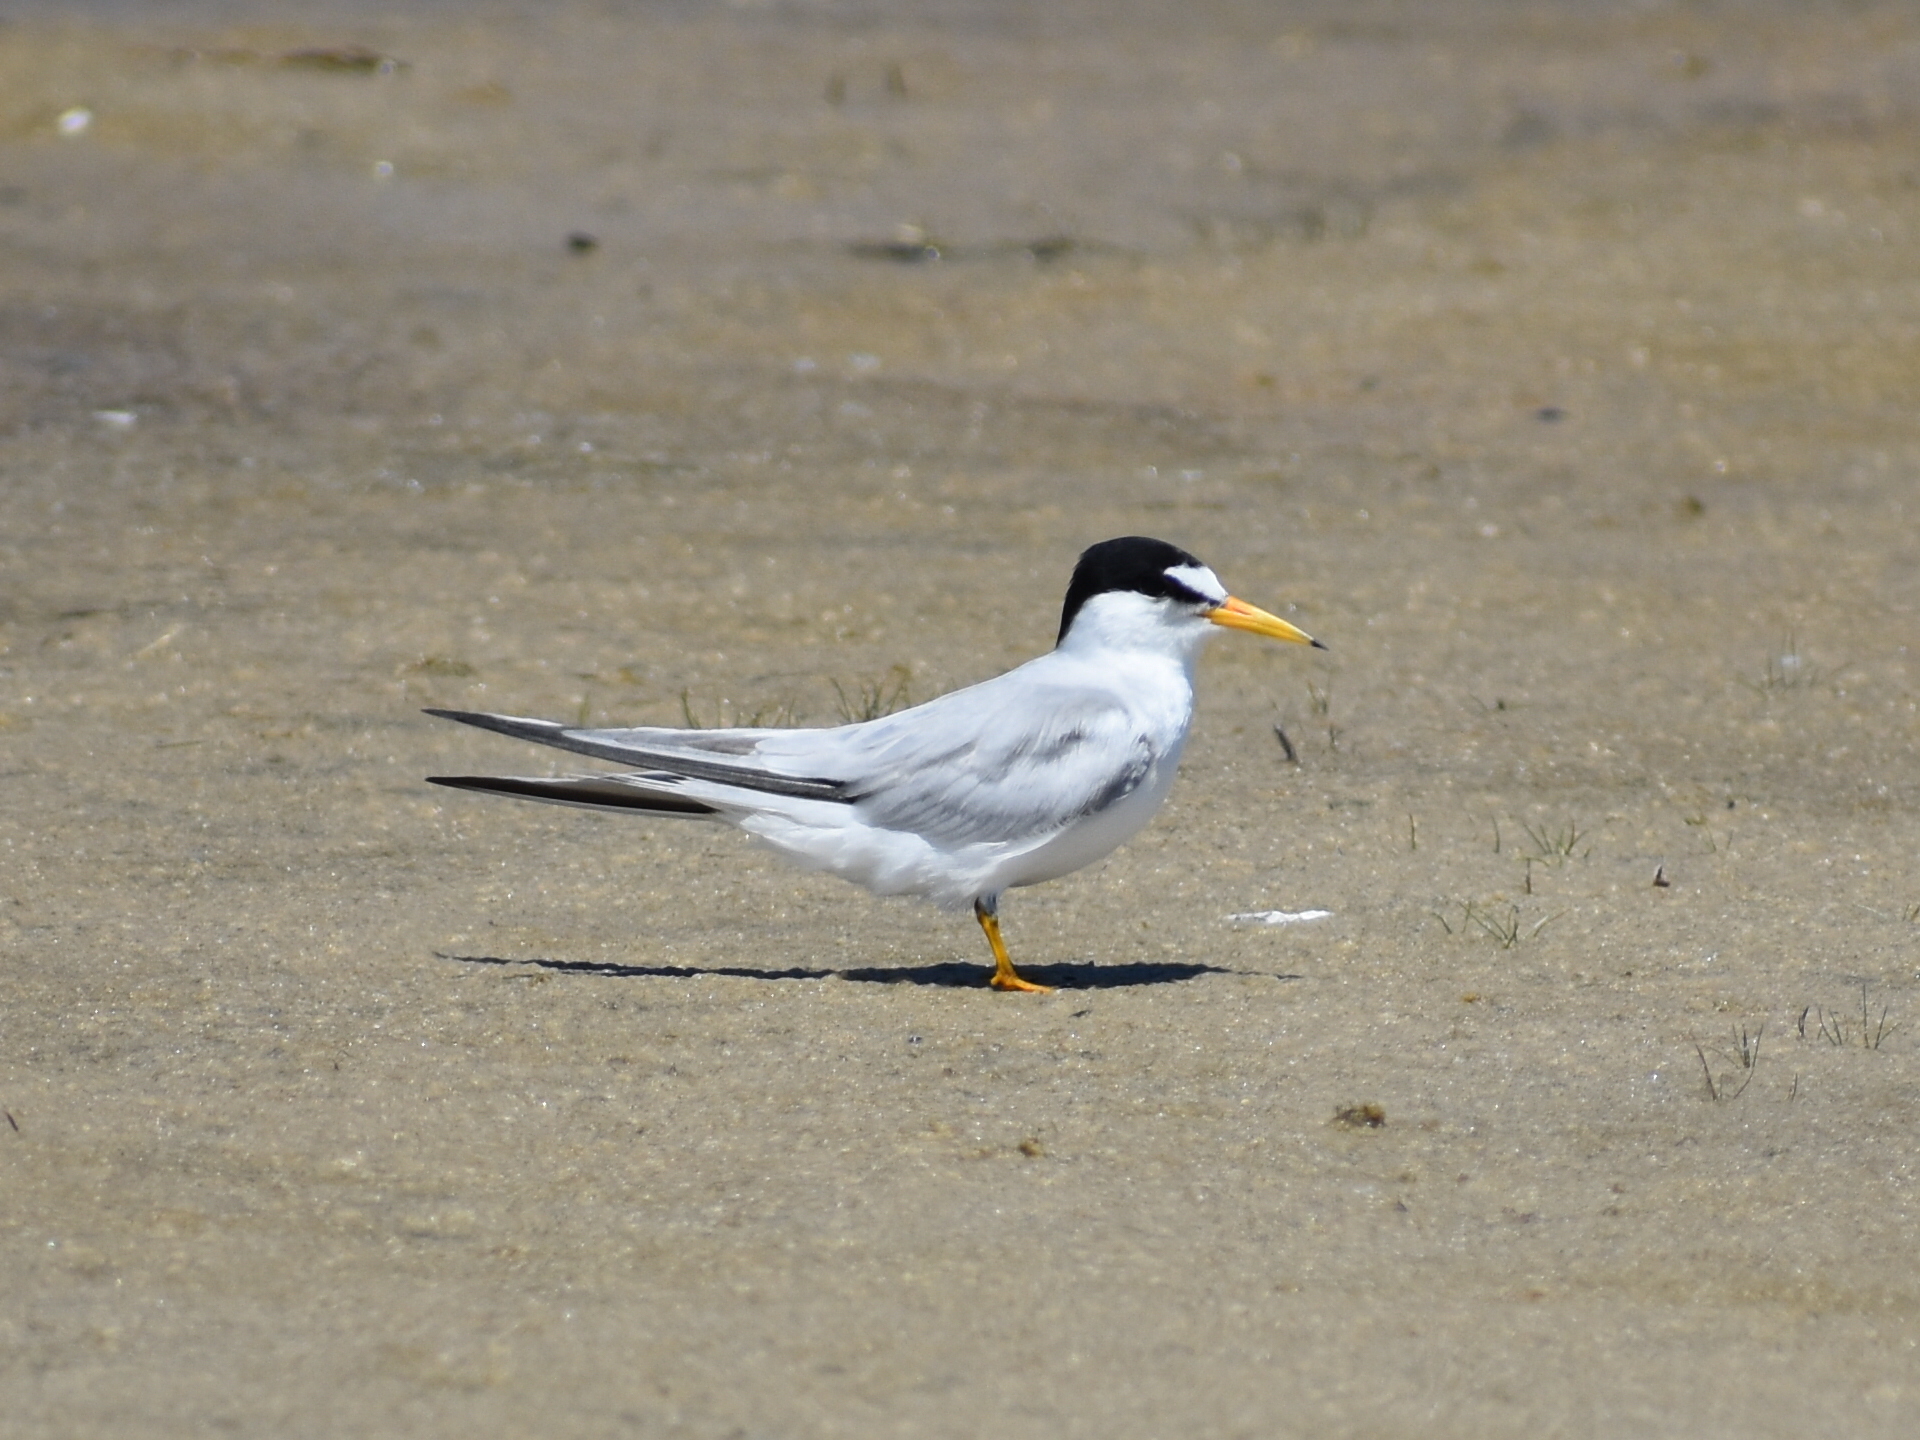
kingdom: Animalia
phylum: Chordata
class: Aves
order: Charadriiformes
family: Laridae
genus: Sternula
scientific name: Sternula antillarum
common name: Least tern
